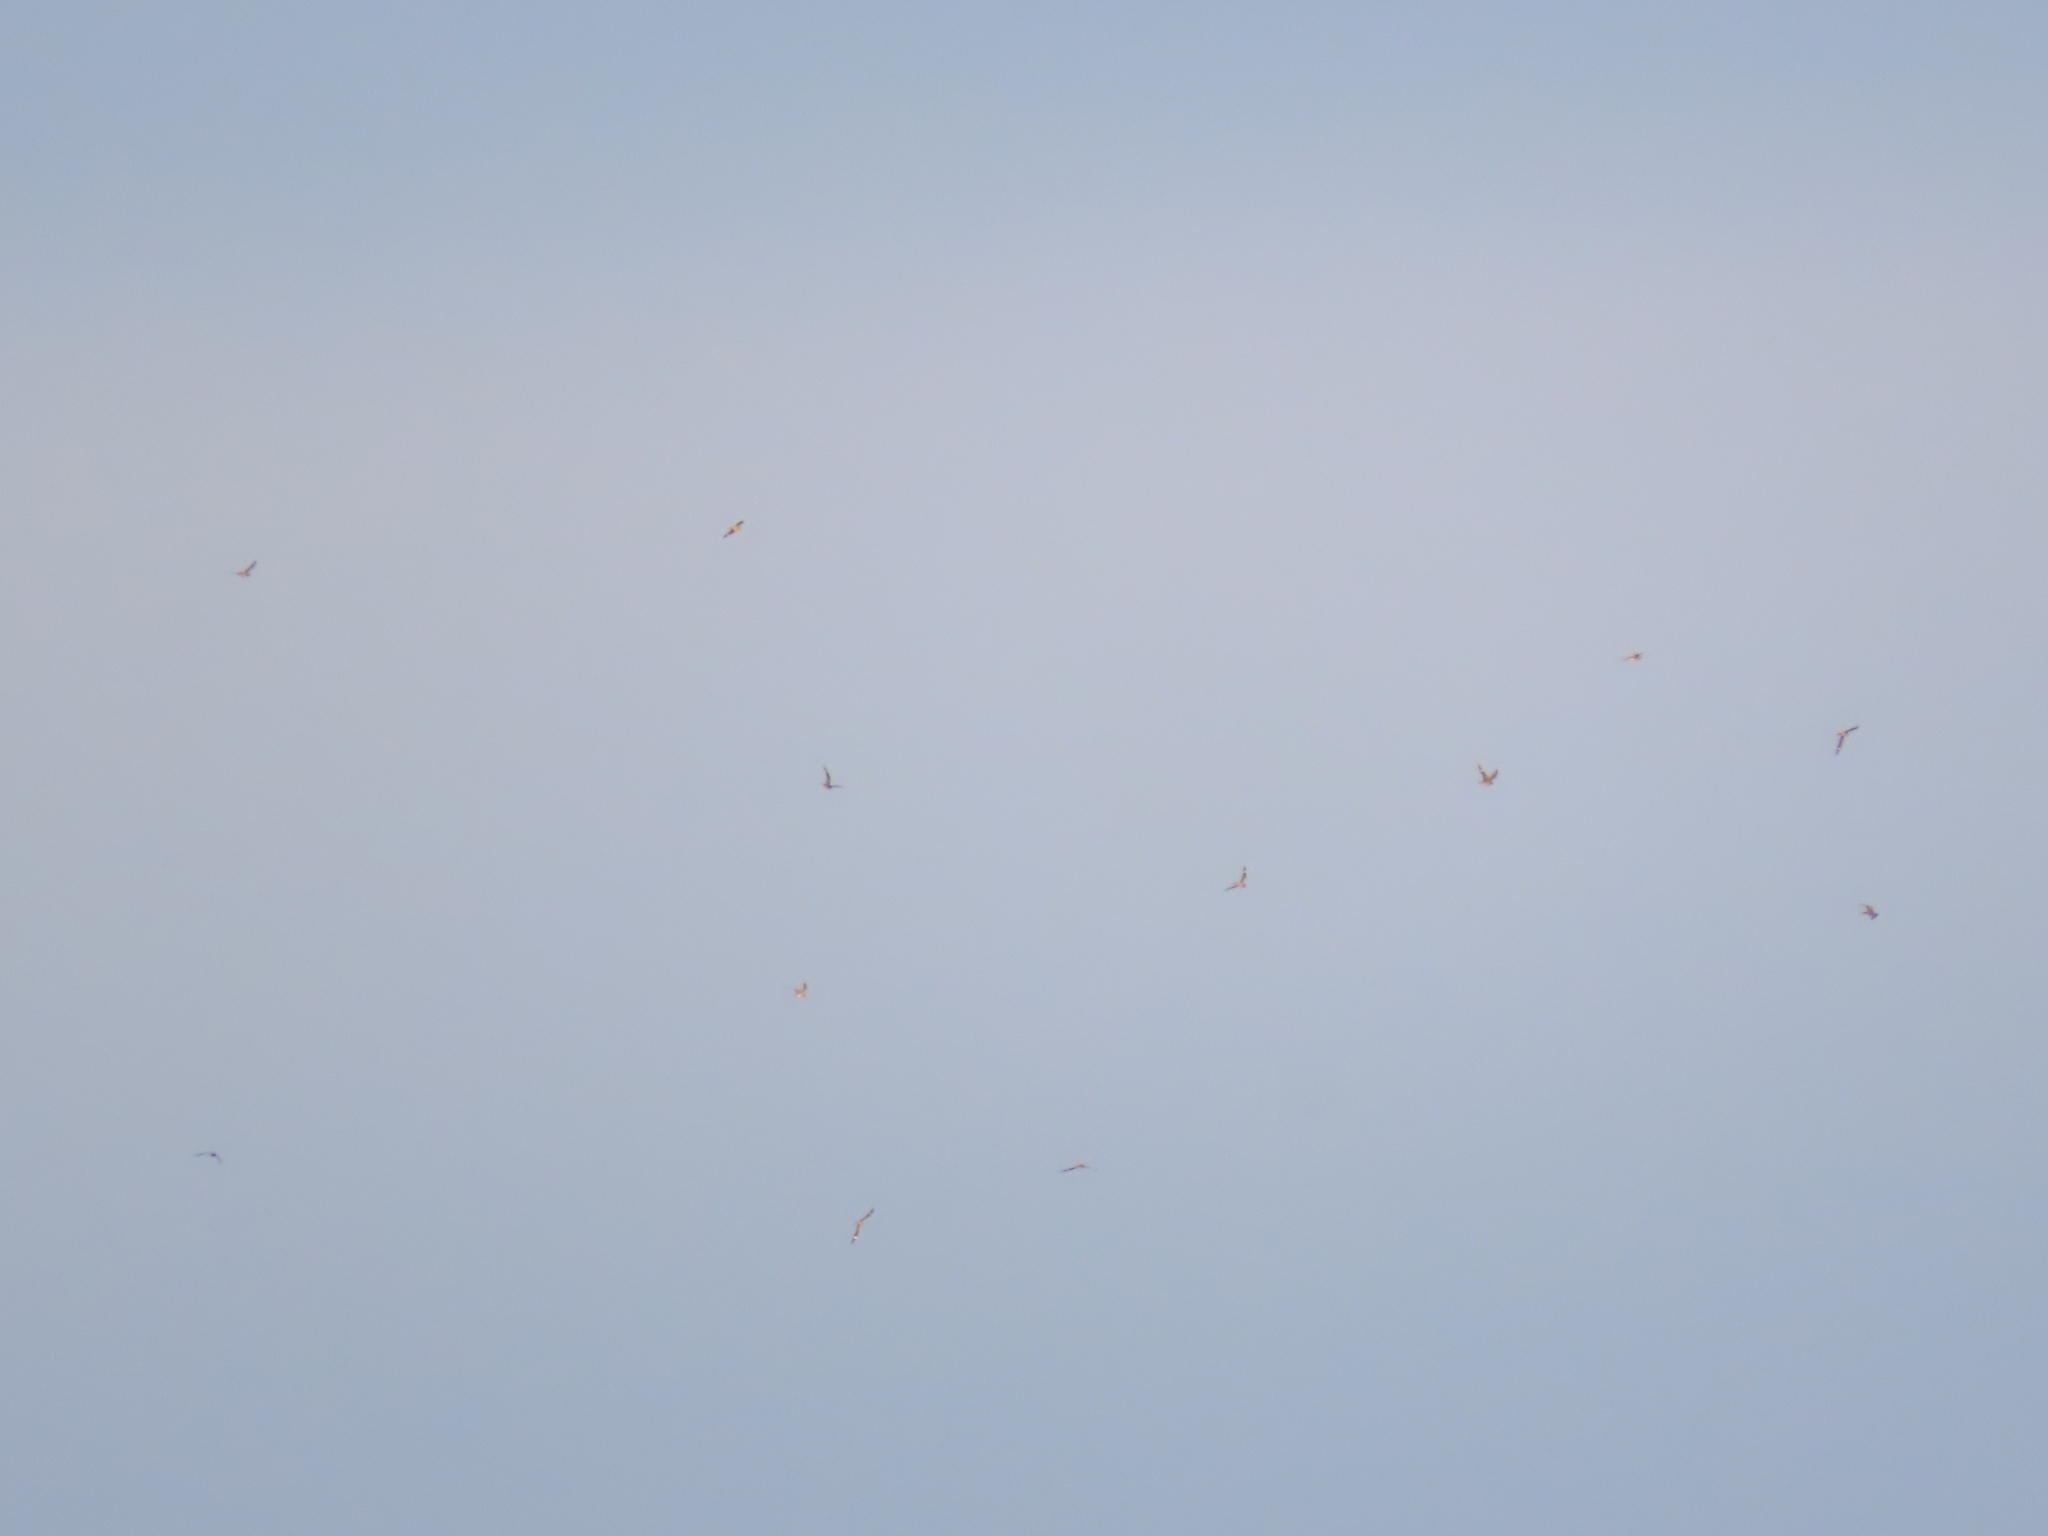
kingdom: Animalia
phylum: Chordata
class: Aves
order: Caprimulgiformes
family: Caprimulgidae
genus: Chordeiles
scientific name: Chordeiles minor
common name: Common nighthawk
